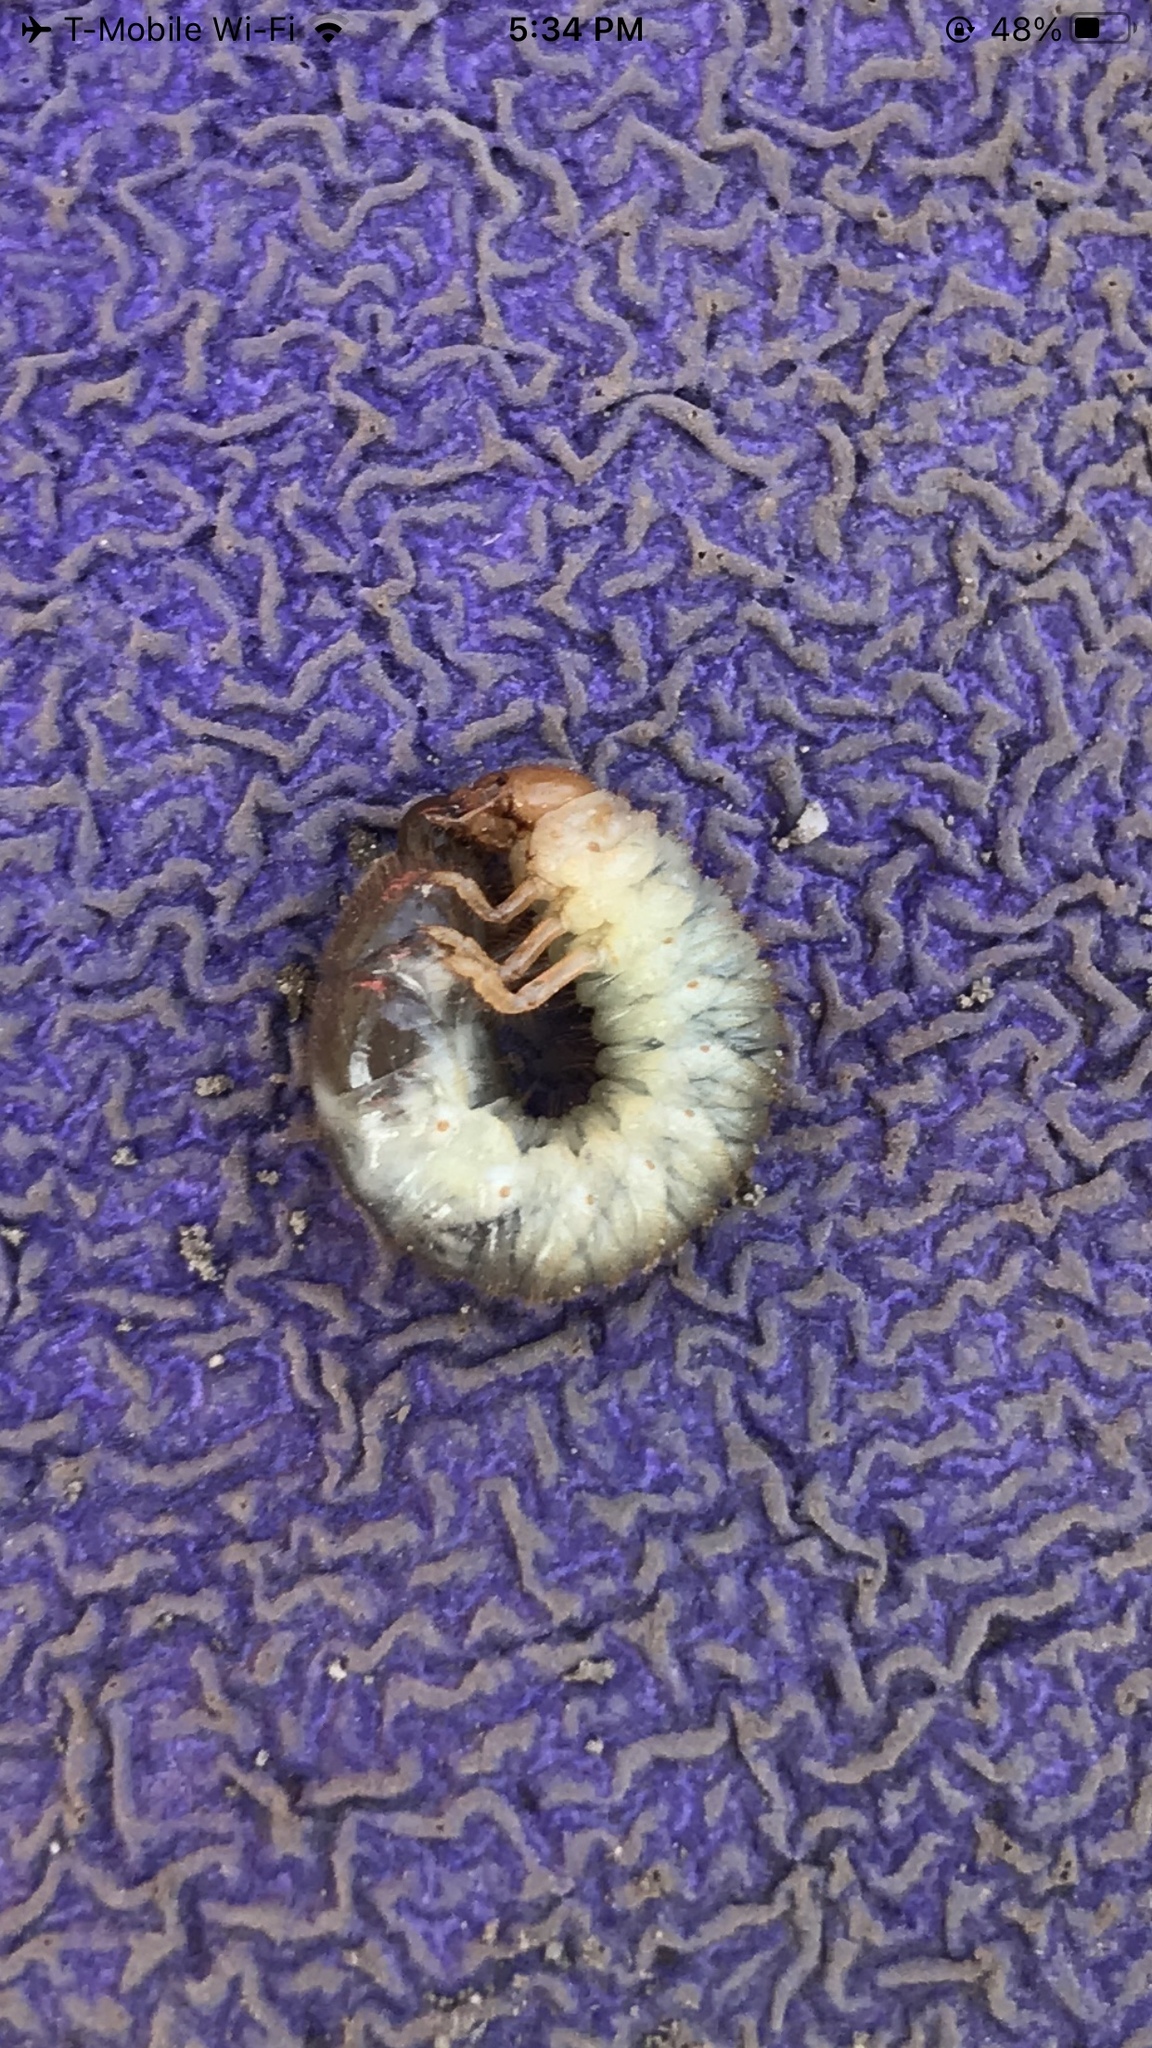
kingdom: Animalia
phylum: Arthropoda
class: Insecta
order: Coleoptera
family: Scarabaeidae
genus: Popillia
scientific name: Popillia japonica
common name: Japanese beetle
